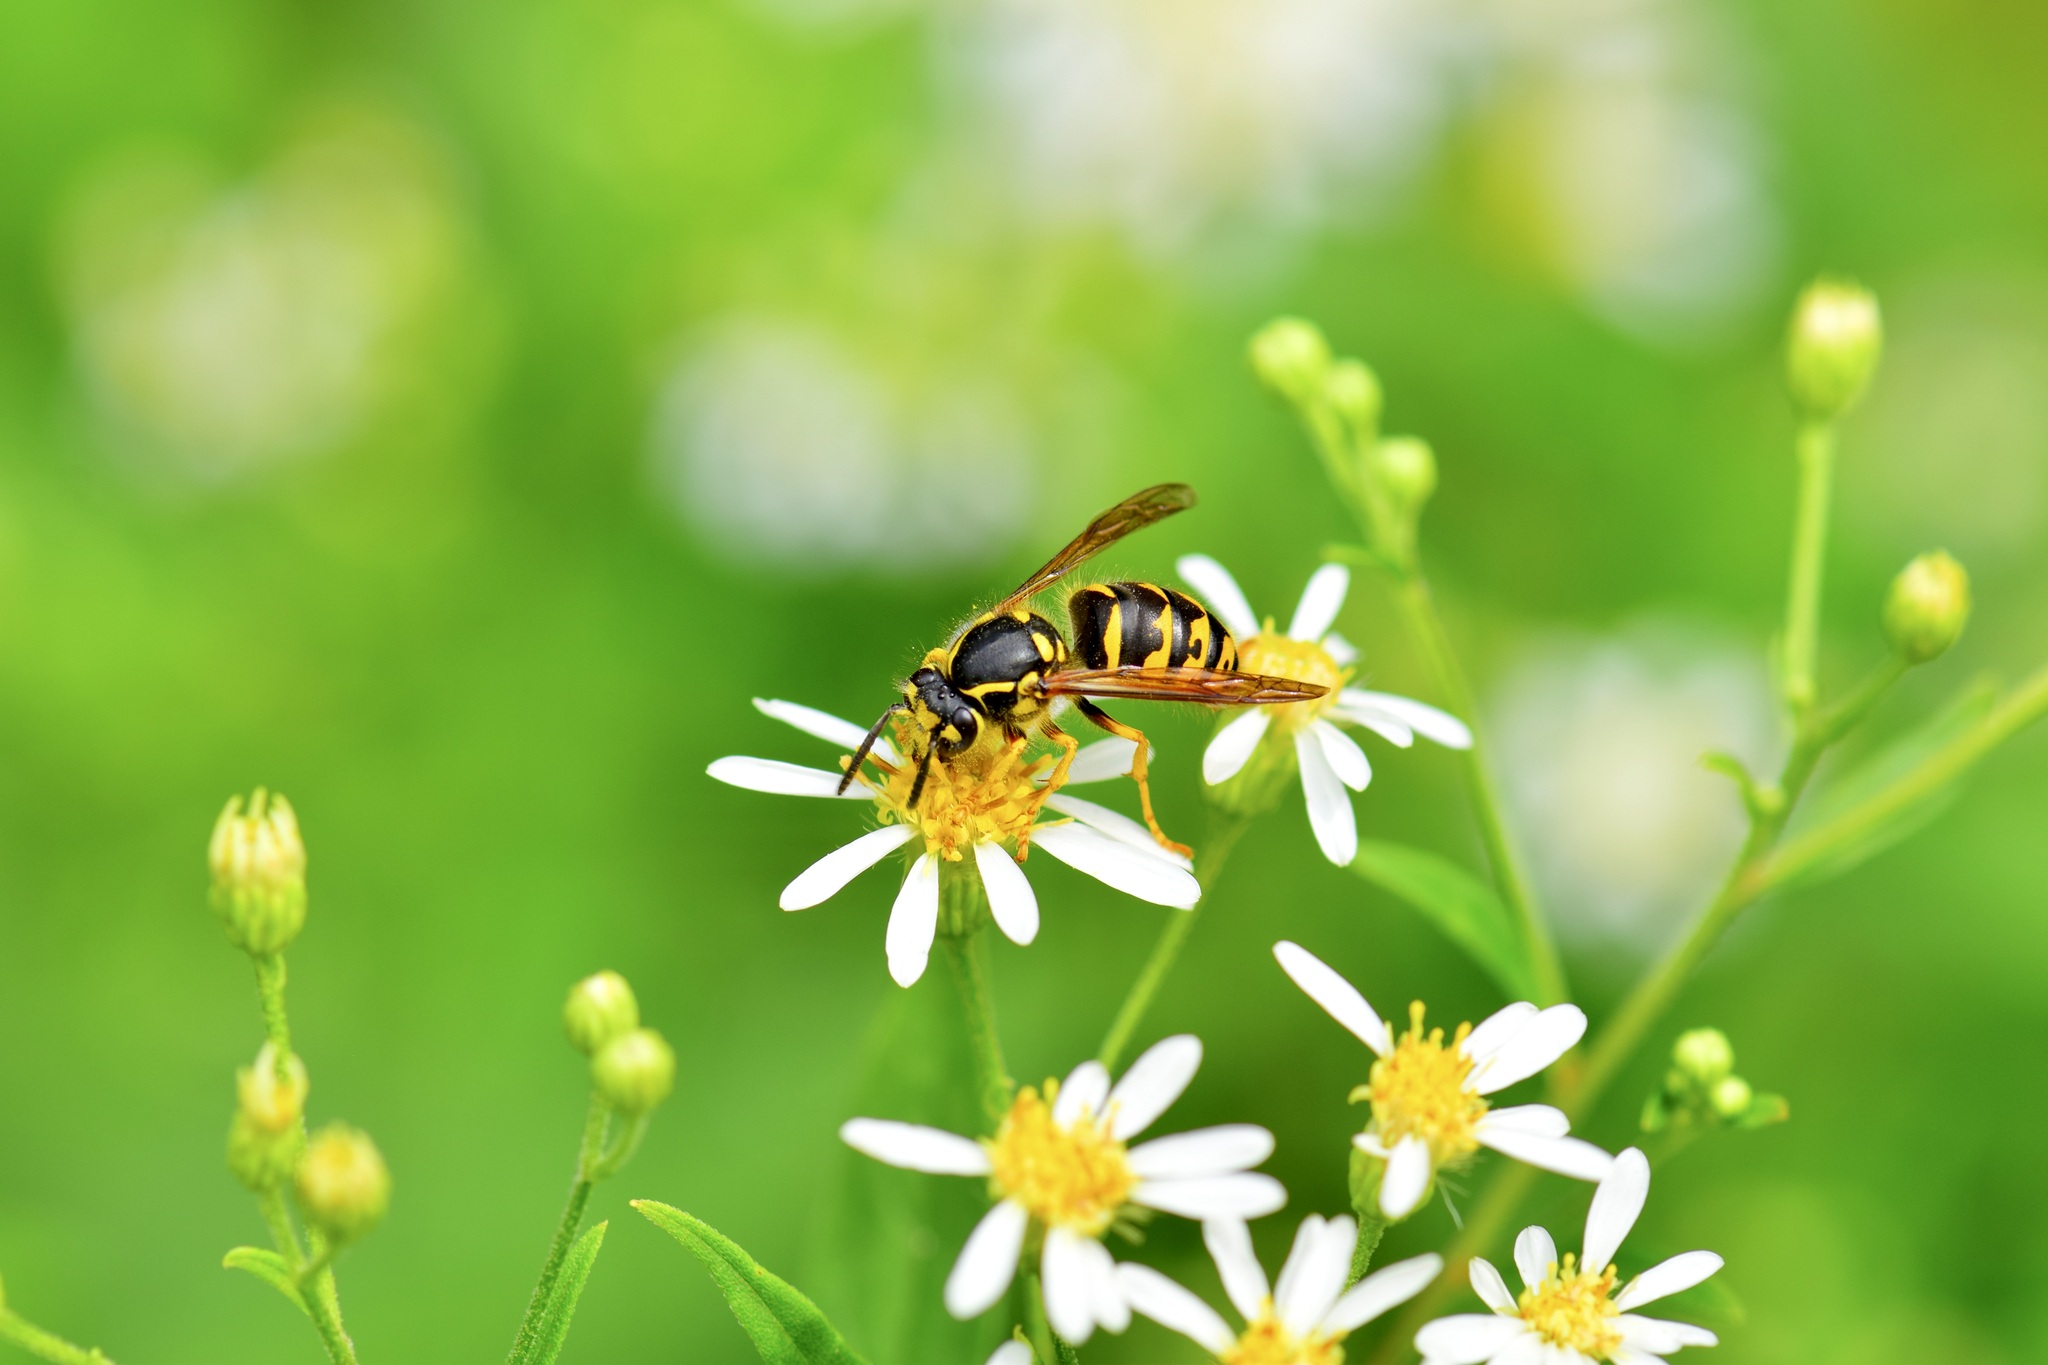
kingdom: Animalia
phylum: Arthropoda
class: Insecta
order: Hymenoptera
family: Vespidae
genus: Dolichovespula
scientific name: Dolichovespula arenaria
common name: Aerial yellowjacket
